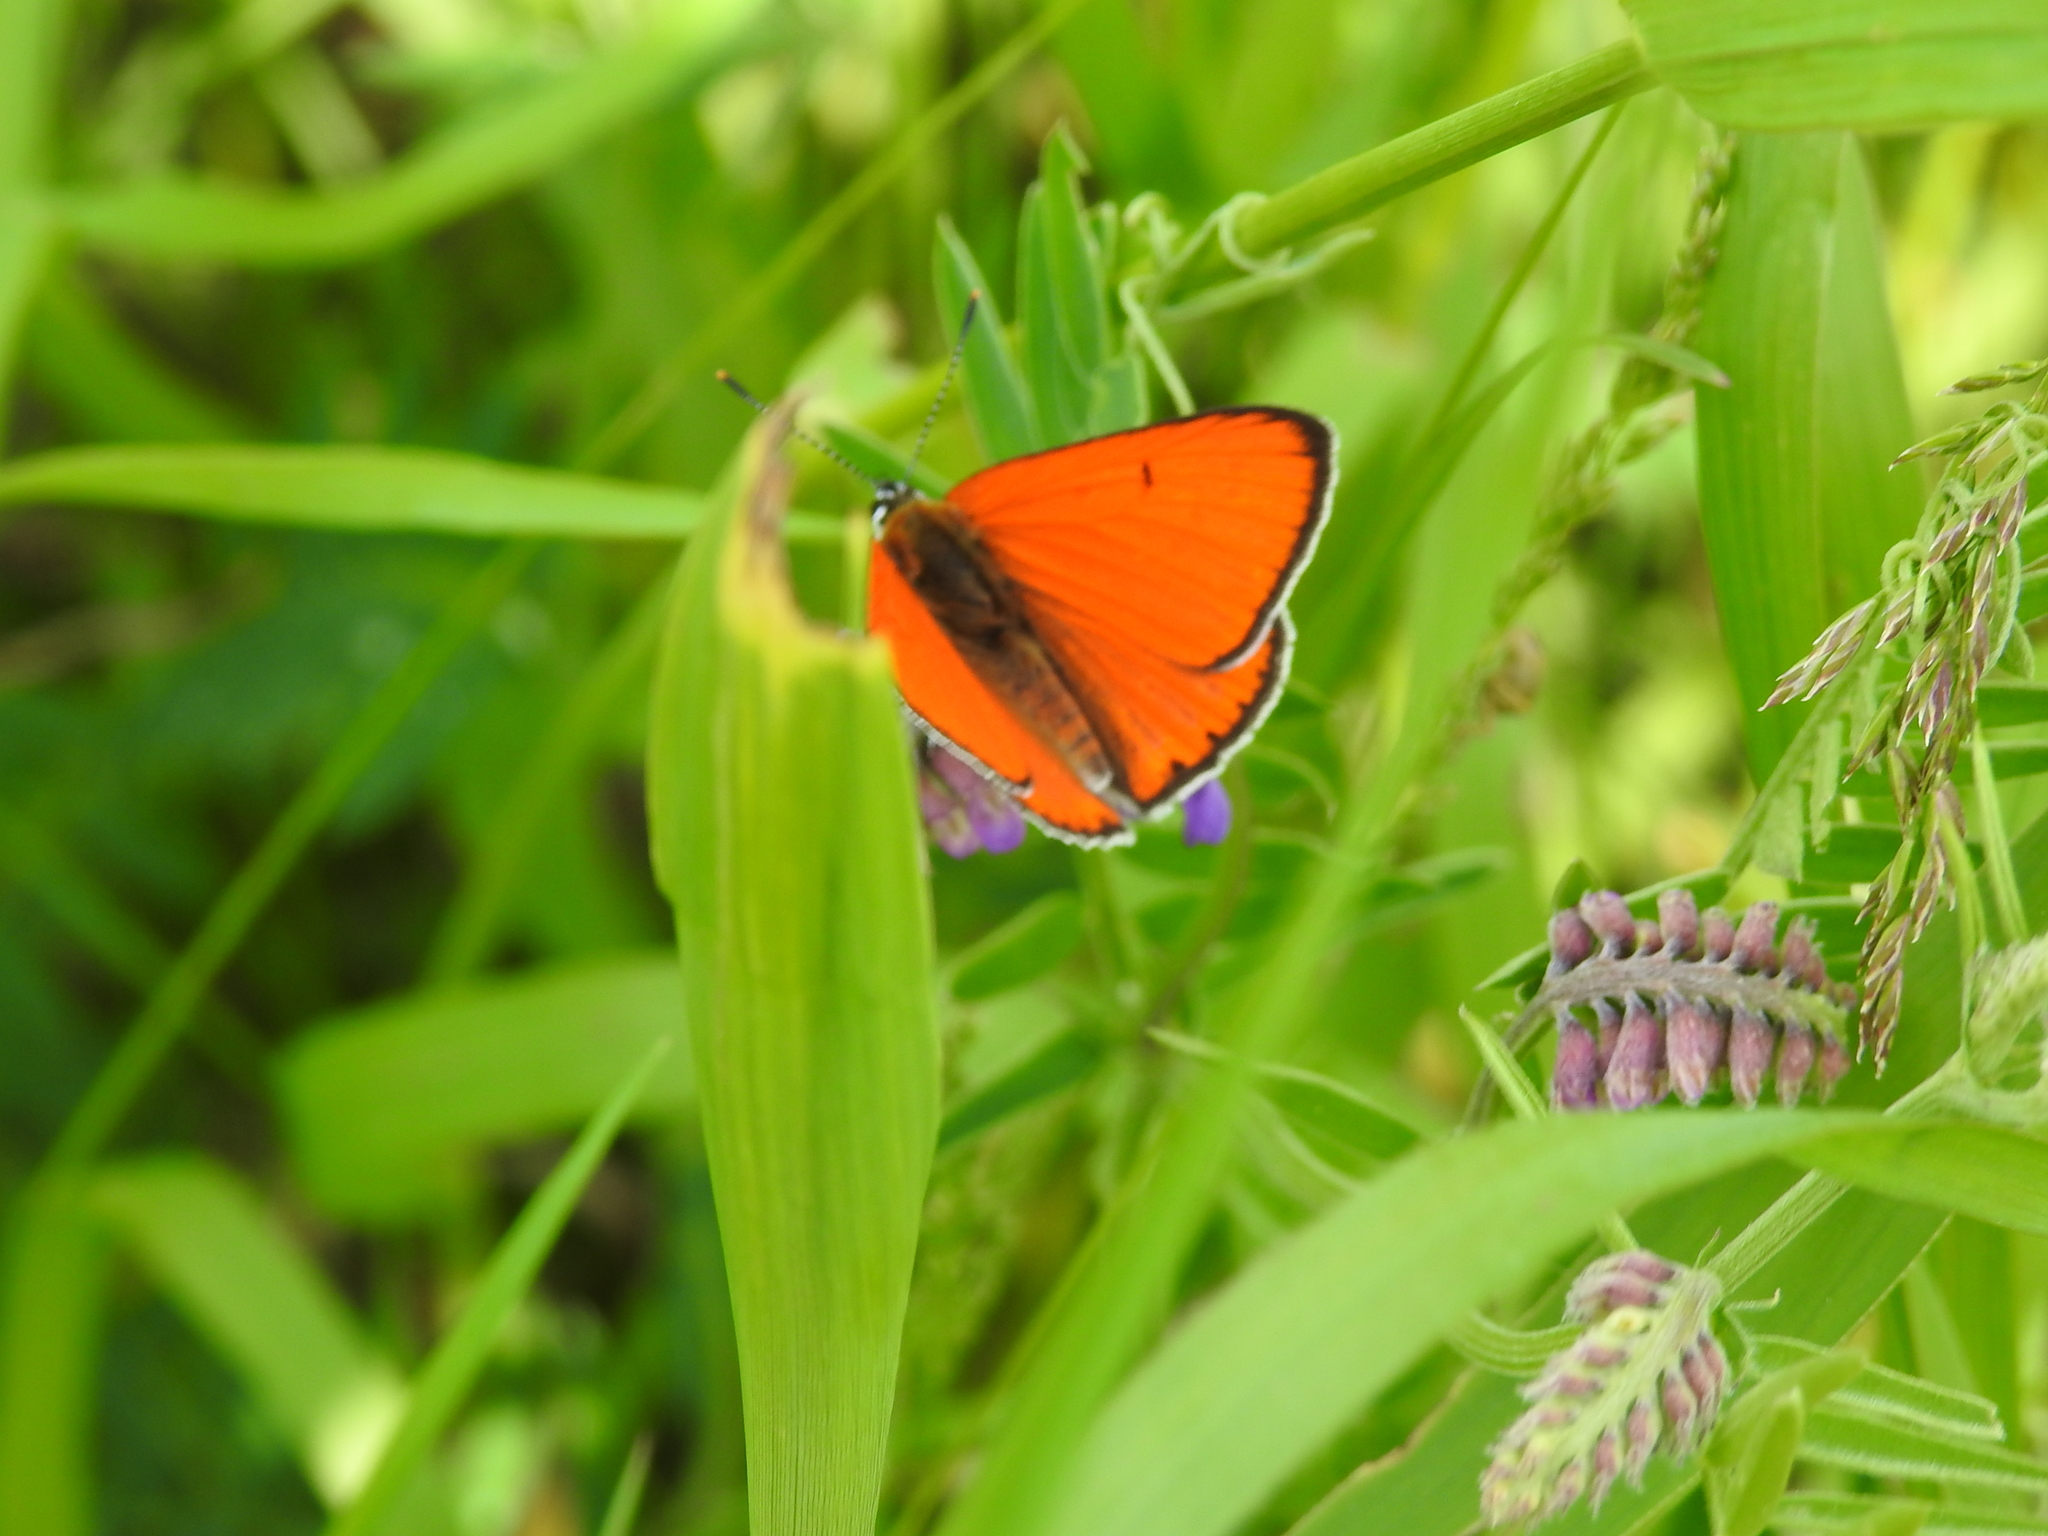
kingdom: Animalia
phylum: Arthropoda
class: Insecta
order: Lepidoptera
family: Lycaenidae
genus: Lycaena
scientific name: Lycaena dispar
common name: Large copper
